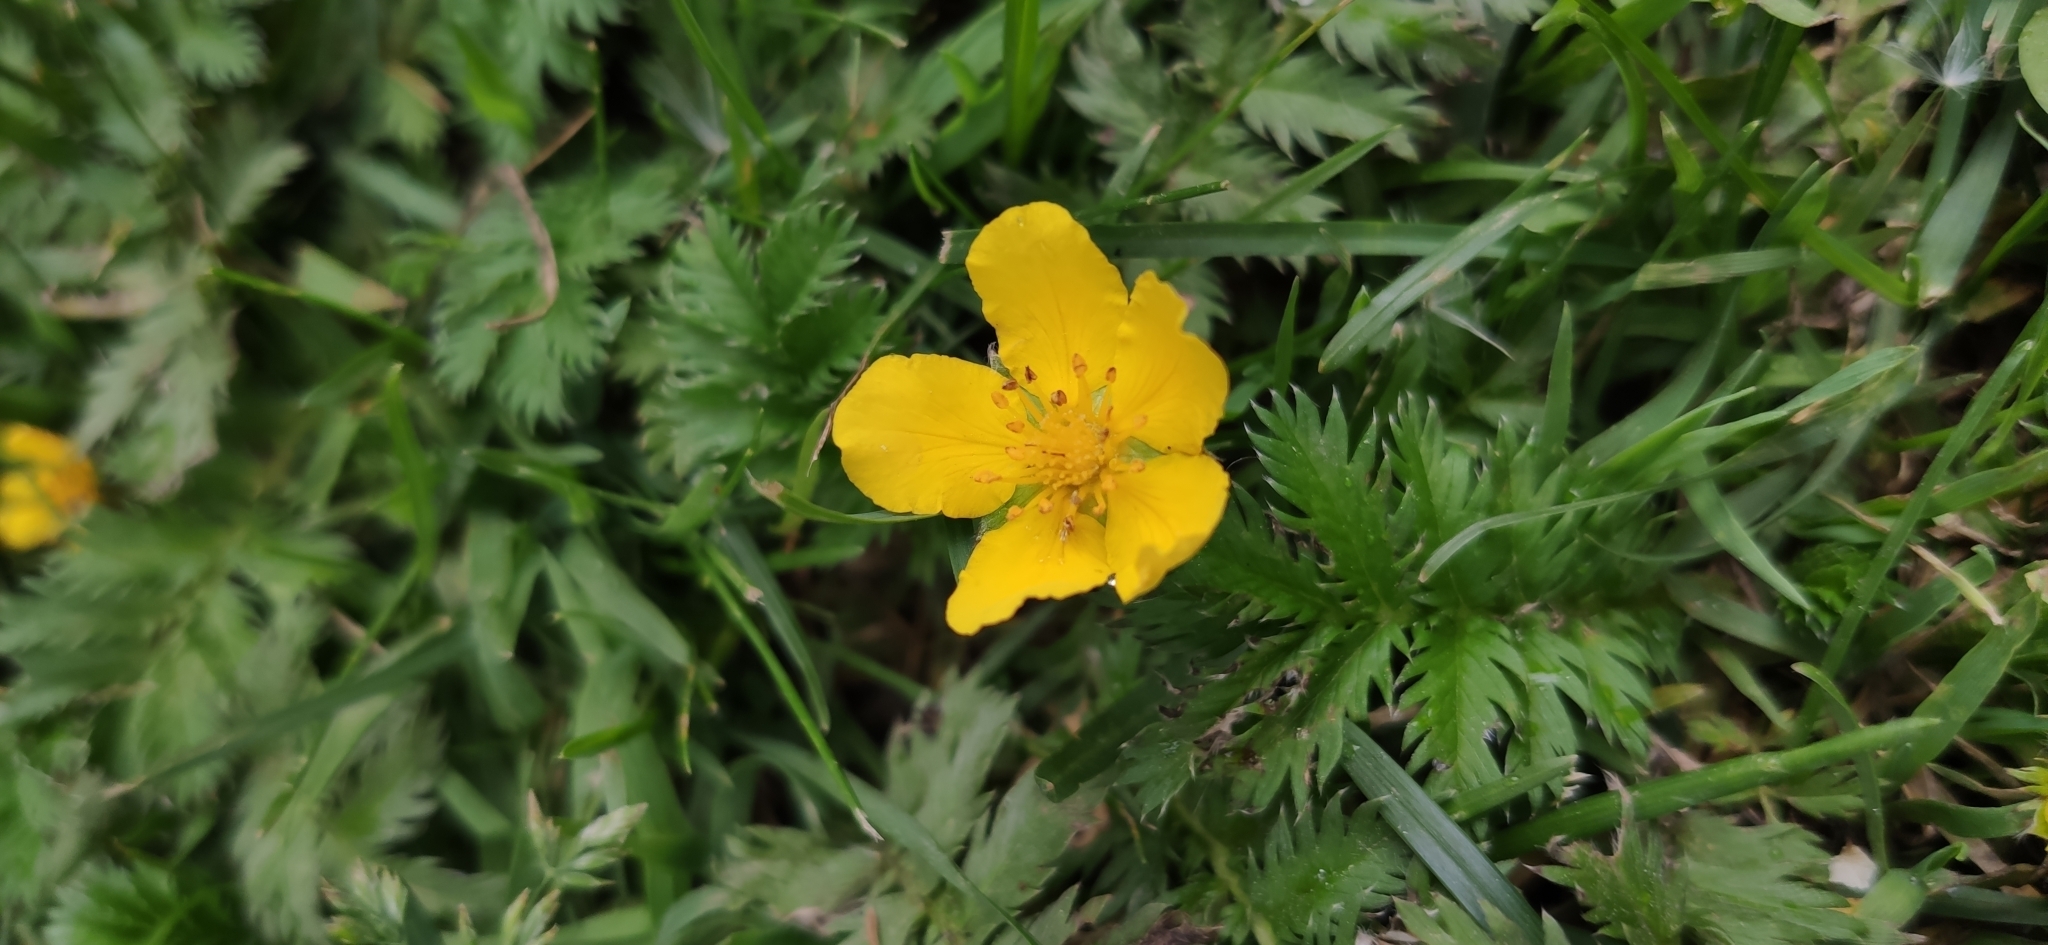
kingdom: Plantae
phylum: Tracheophyta
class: Magnoliopsida
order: Rosales
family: Rosaceae
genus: Argentina
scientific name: Argentina anserina
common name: Common silverweed
